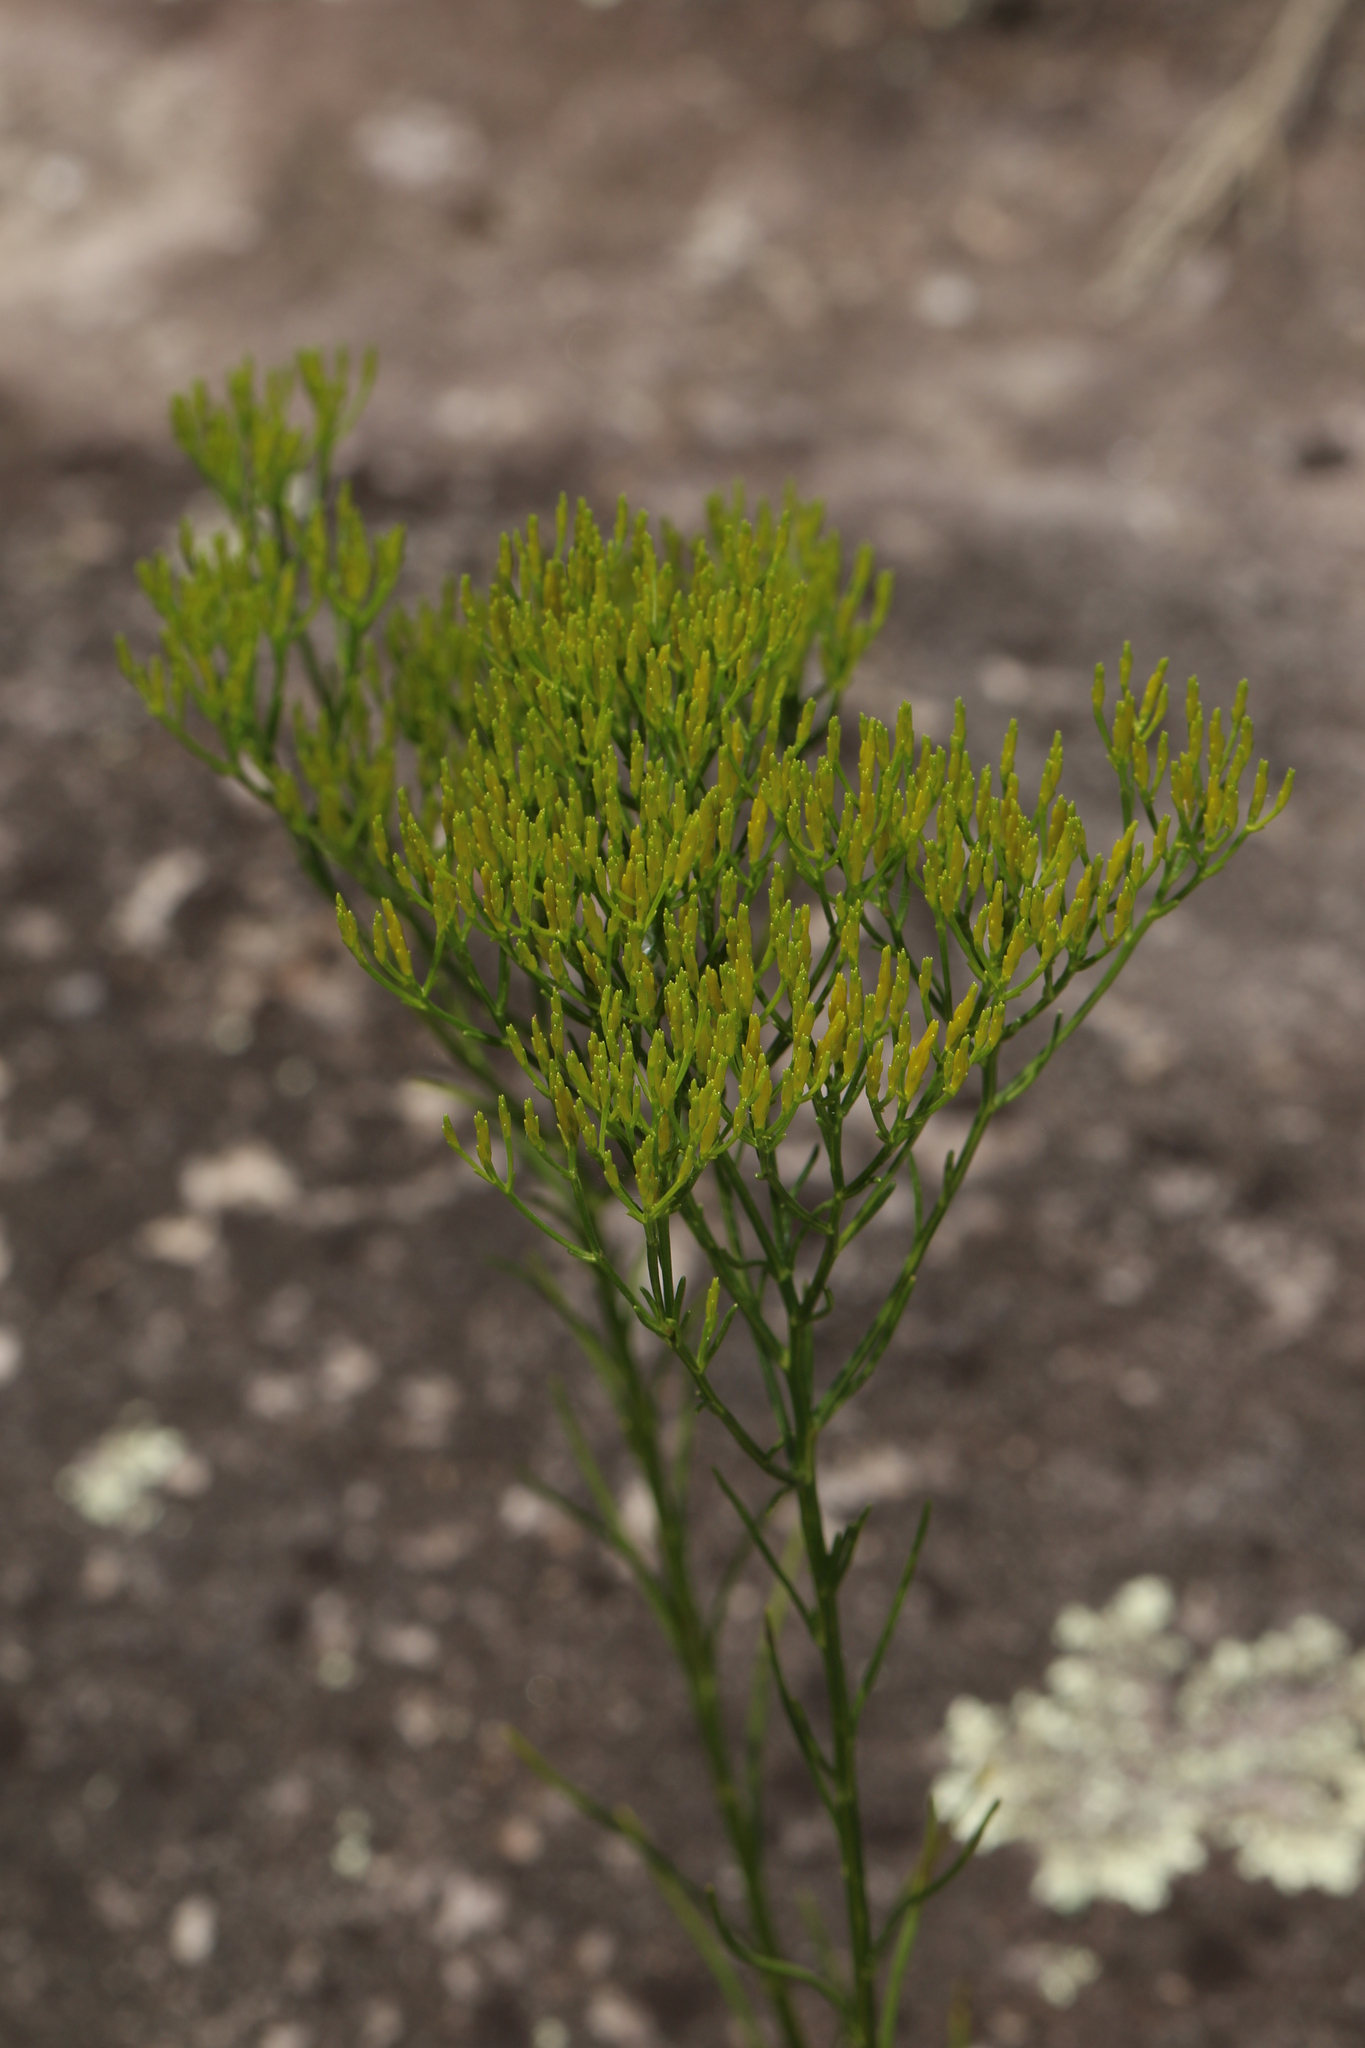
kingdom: Plantae
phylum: Tracheophyta
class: Magnoliopsida
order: Asterales
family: Asteraceae
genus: Bigelowia
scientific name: Bigelowia nuttallii
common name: Nuttall's rayless-goldenrod
